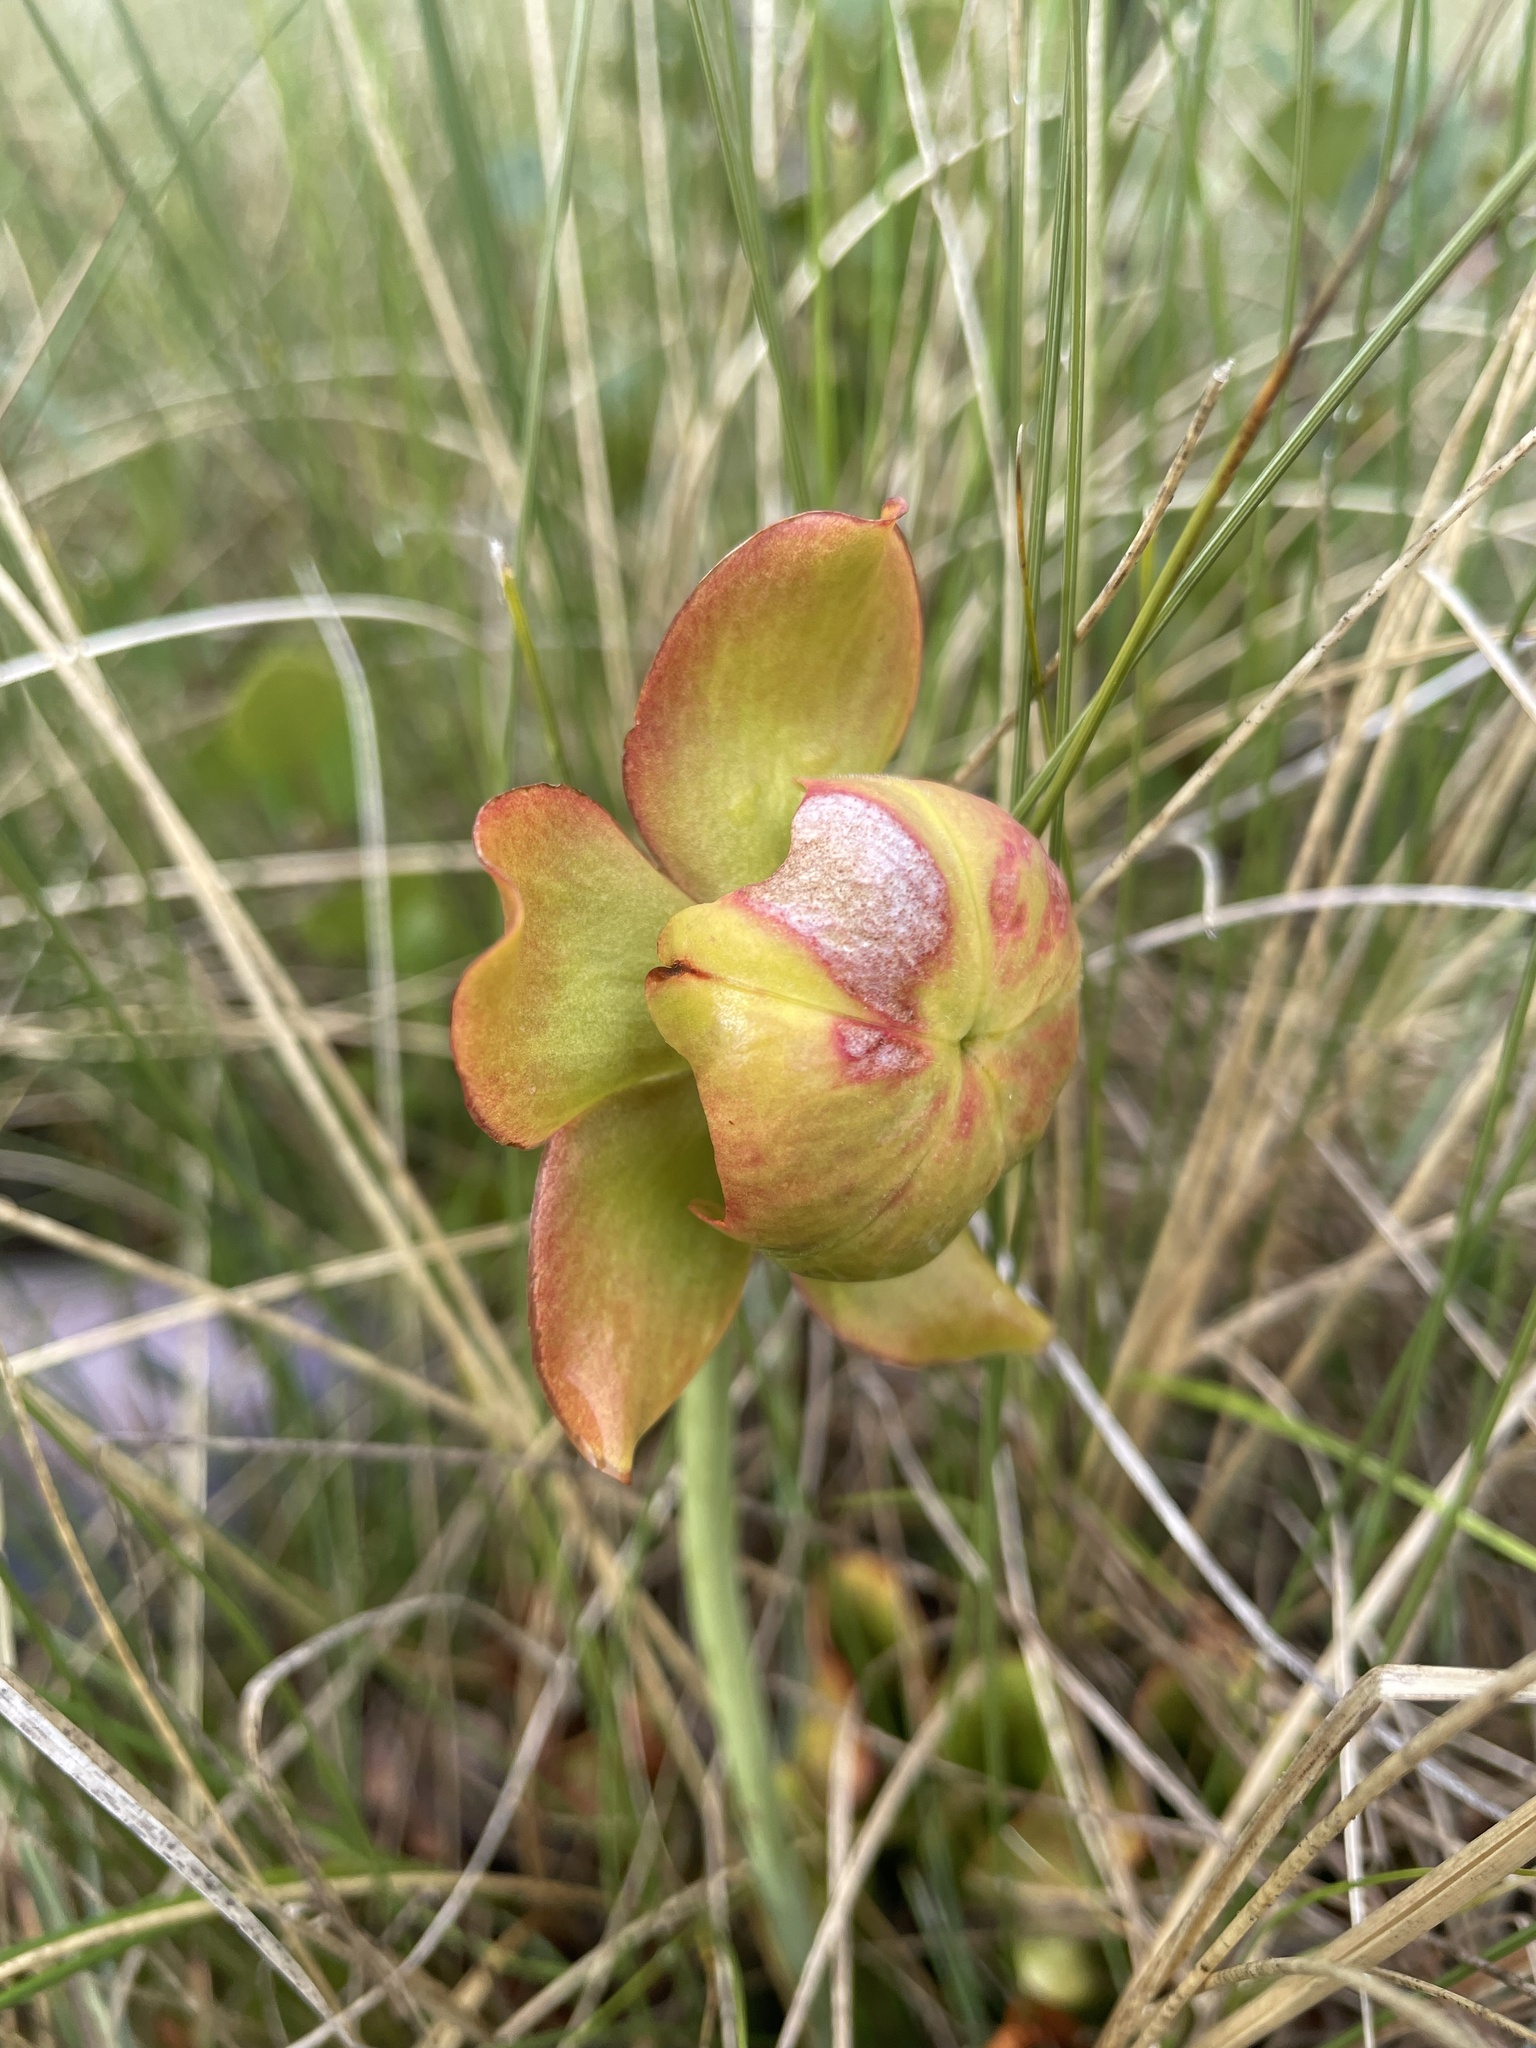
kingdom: Plantae
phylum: Tracheophyta
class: Magnoliopsida
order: Ericales
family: Sarraceniaceae
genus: Sarracenia
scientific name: Sarracenia purpurea
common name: Pitcherplant
